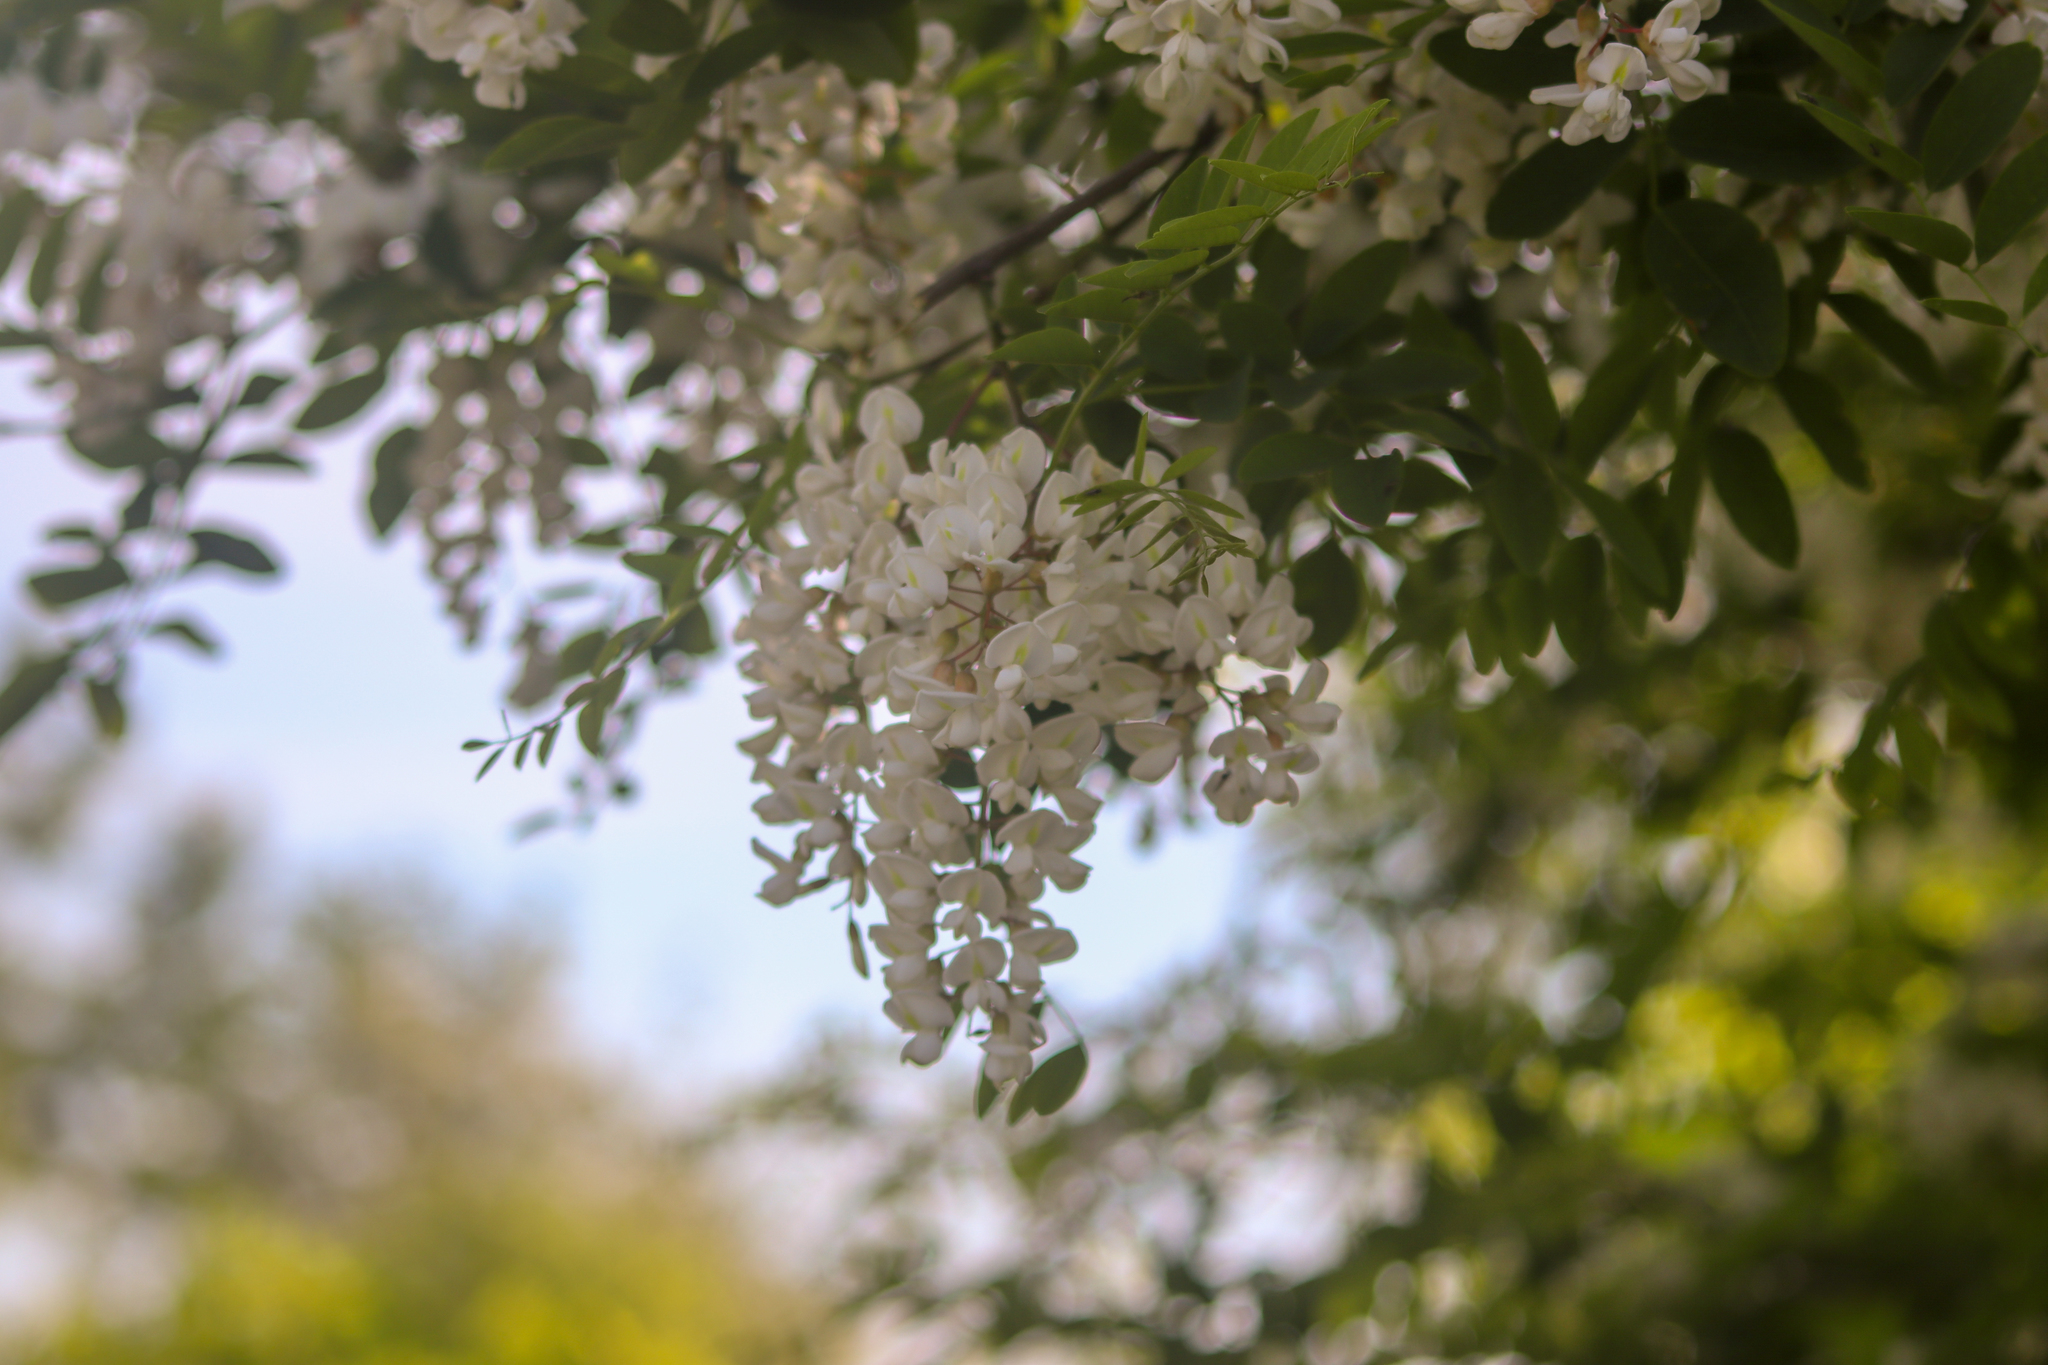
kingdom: Plantae
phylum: Tracheophyta
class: Magnoliopsida
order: Fabales
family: Fabaceae
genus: Robinia
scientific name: Robinia pseudoacacia
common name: Black locust
